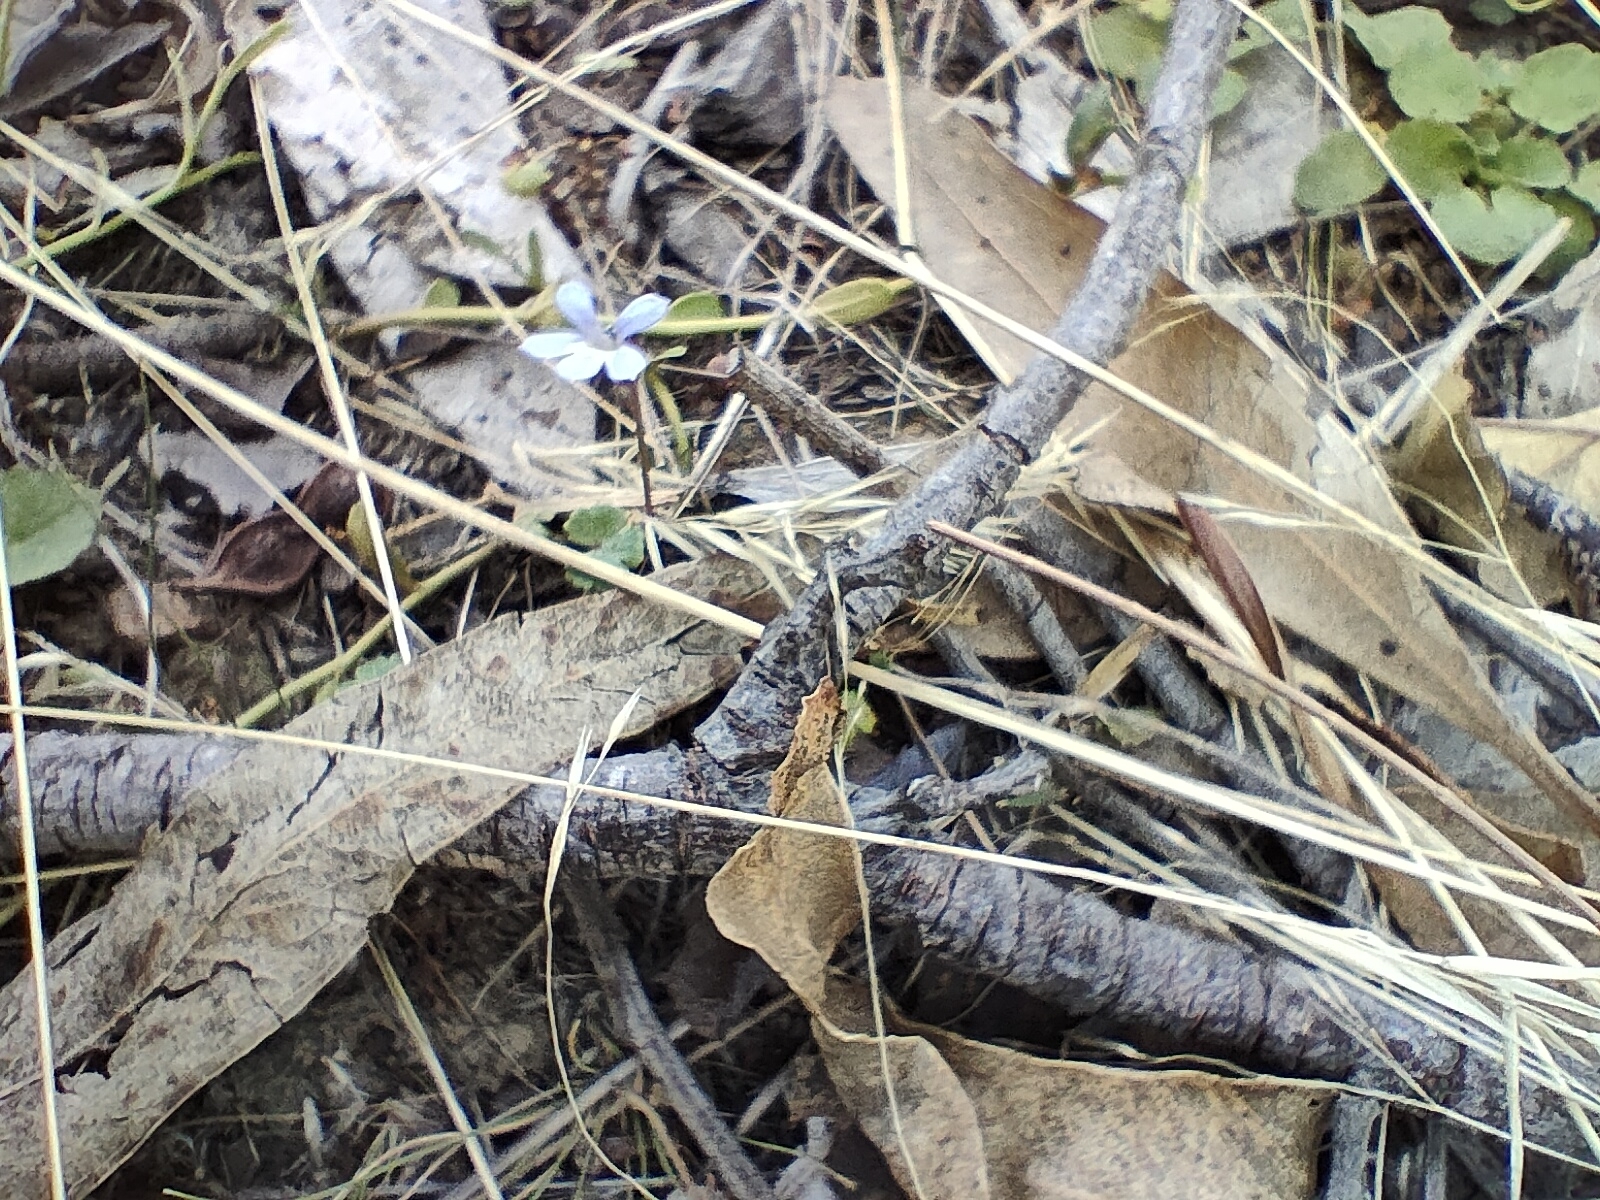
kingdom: Plantae
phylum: Tracheophyta
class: Magnoliopsida
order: Asterales
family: Campanulaceae
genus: Lobelia
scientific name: Lobelia pratioides
